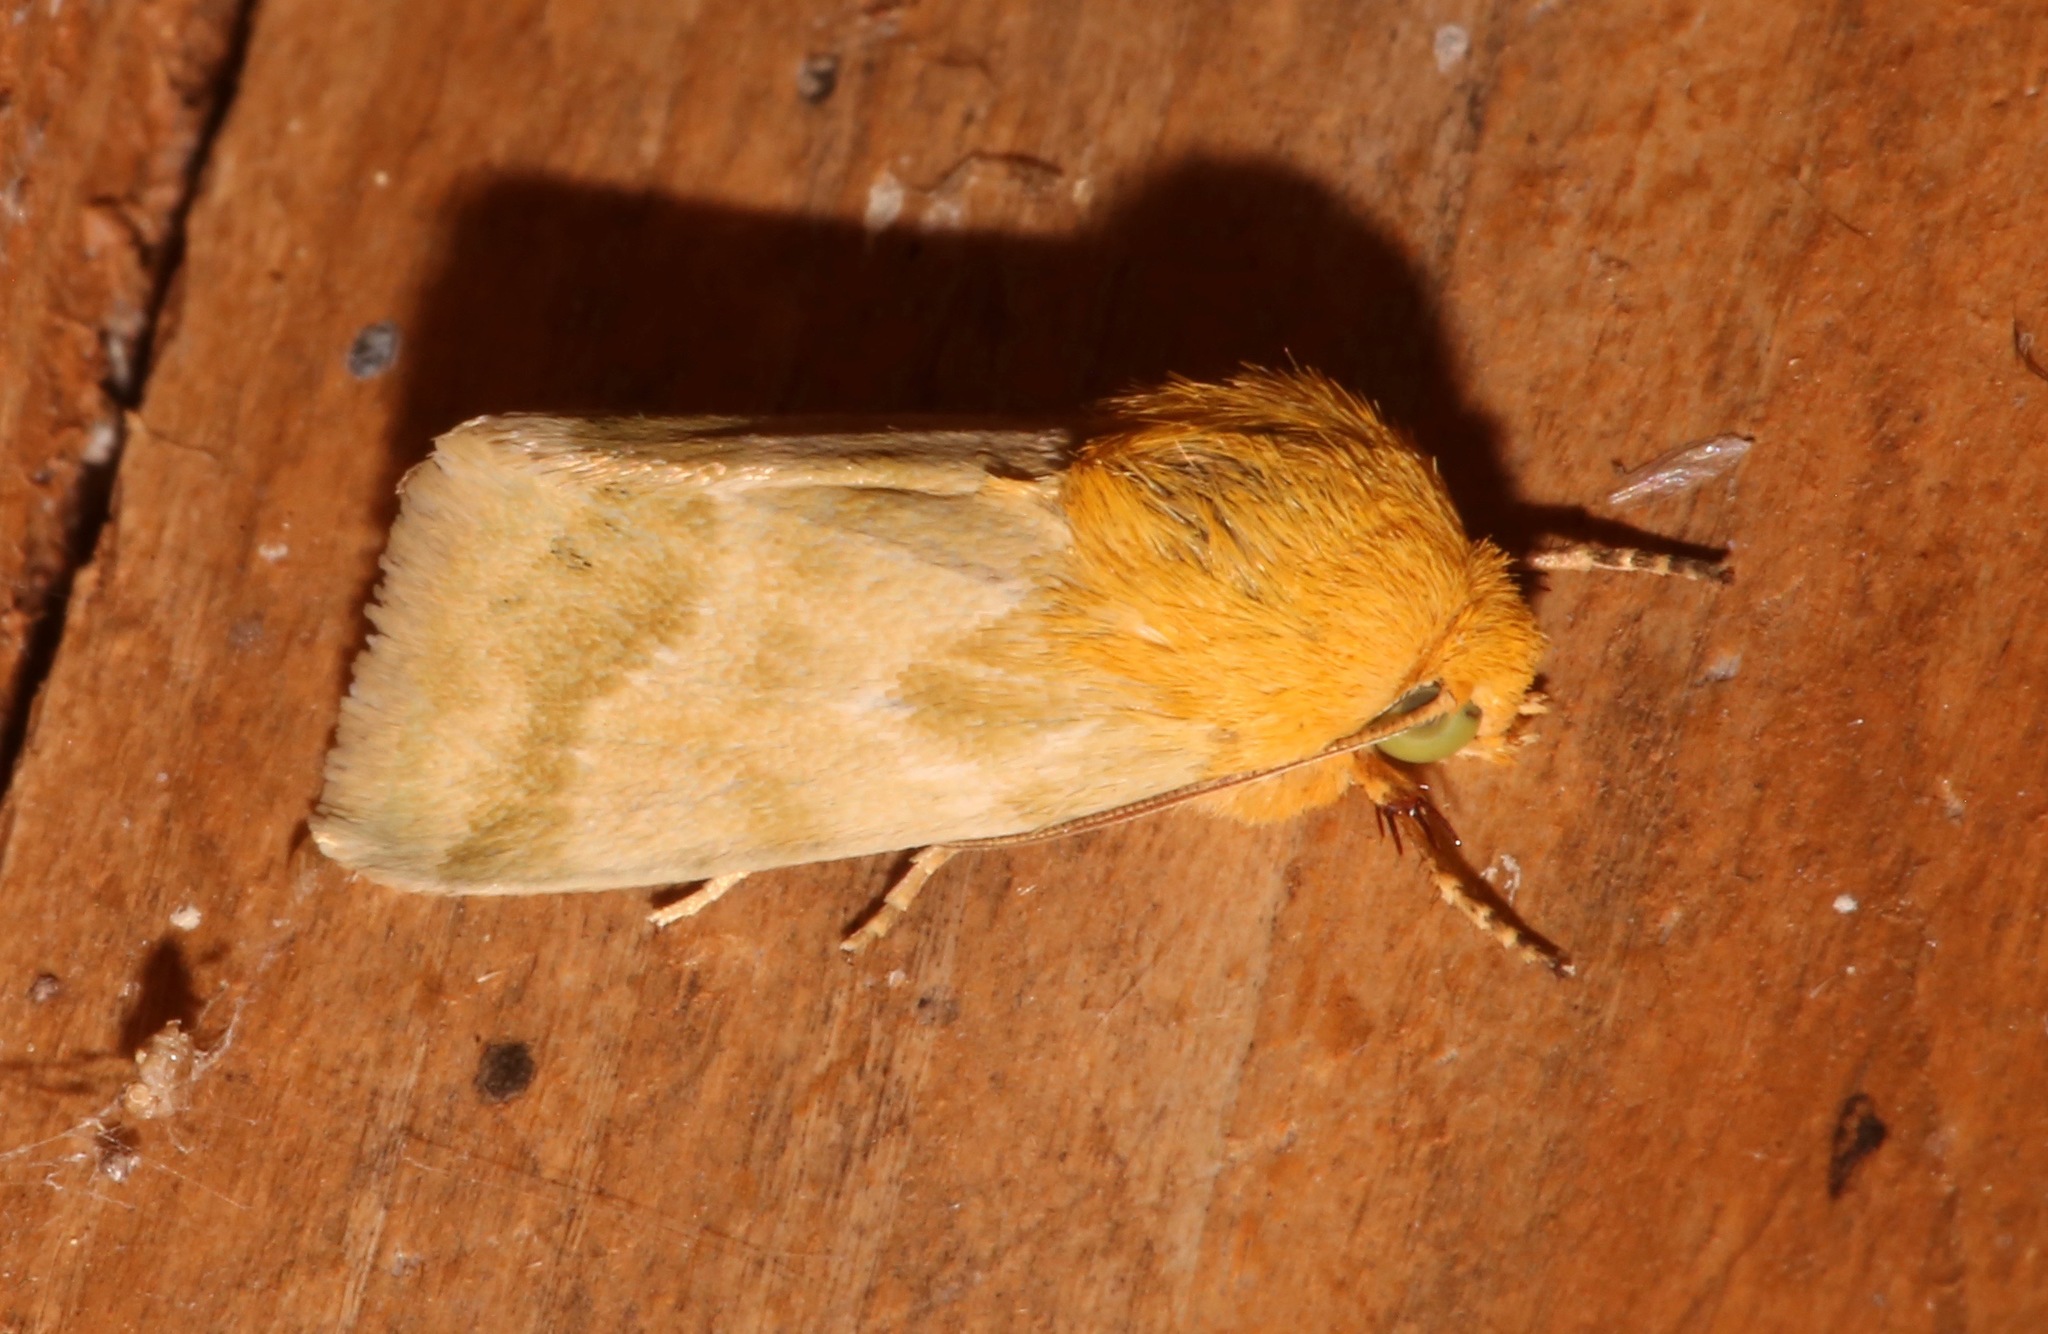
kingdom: Animalia
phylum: Arthropoda
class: Insecta
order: Lepidoptera
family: Noctuidae
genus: Schinia
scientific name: Schinia siren
